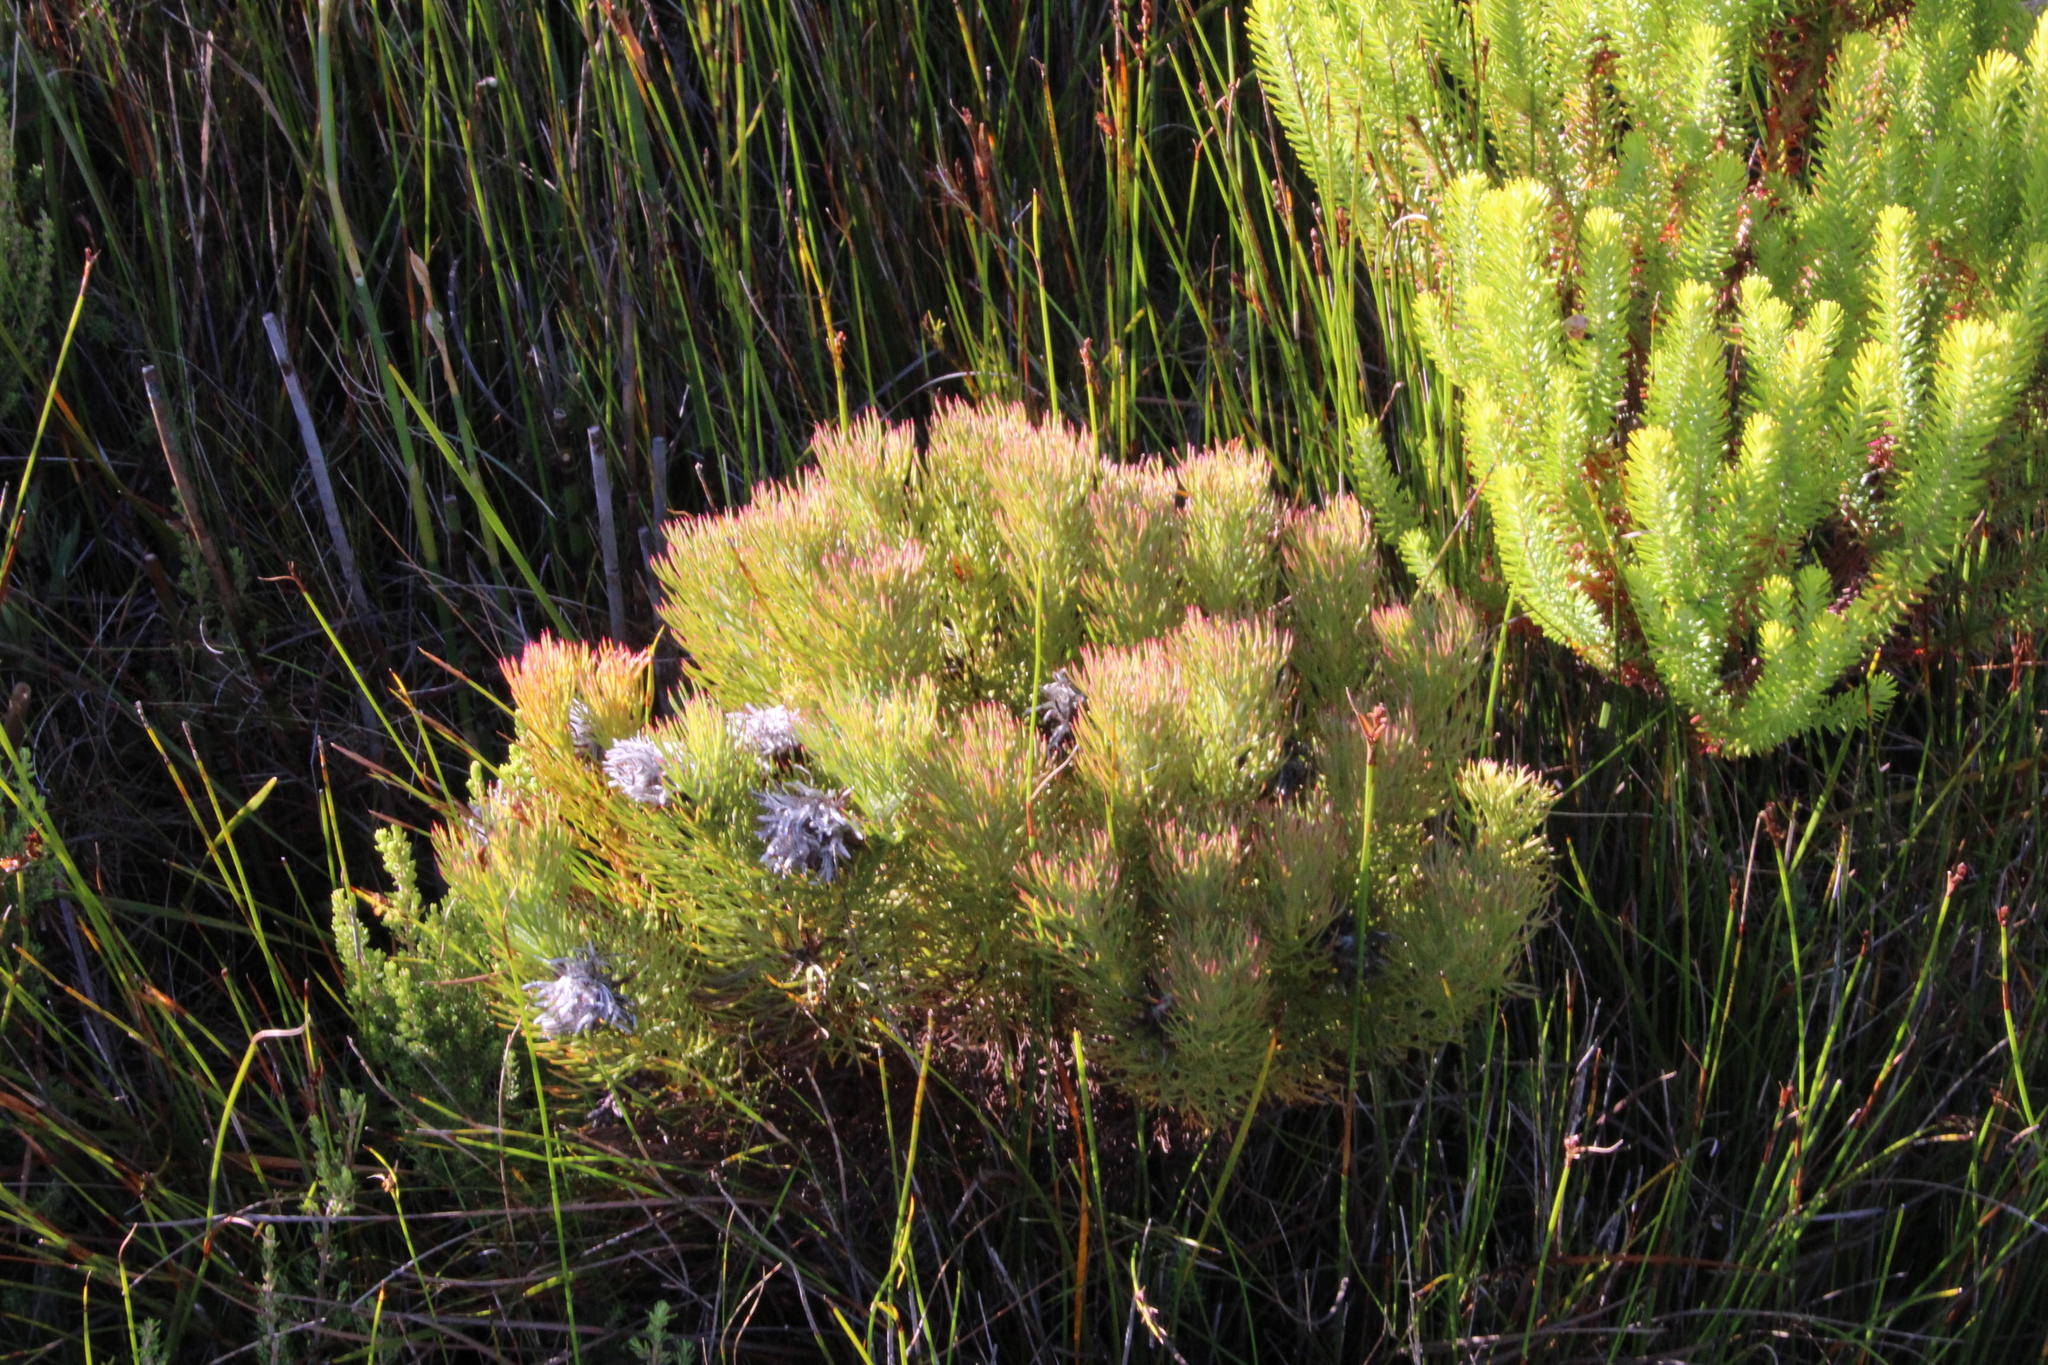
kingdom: Plantae
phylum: Tracheophyta
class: Magnoliopsida
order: Proteales
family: Proteaceae
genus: Serruria
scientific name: Serruria rostellaris
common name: Remote spiderhead
